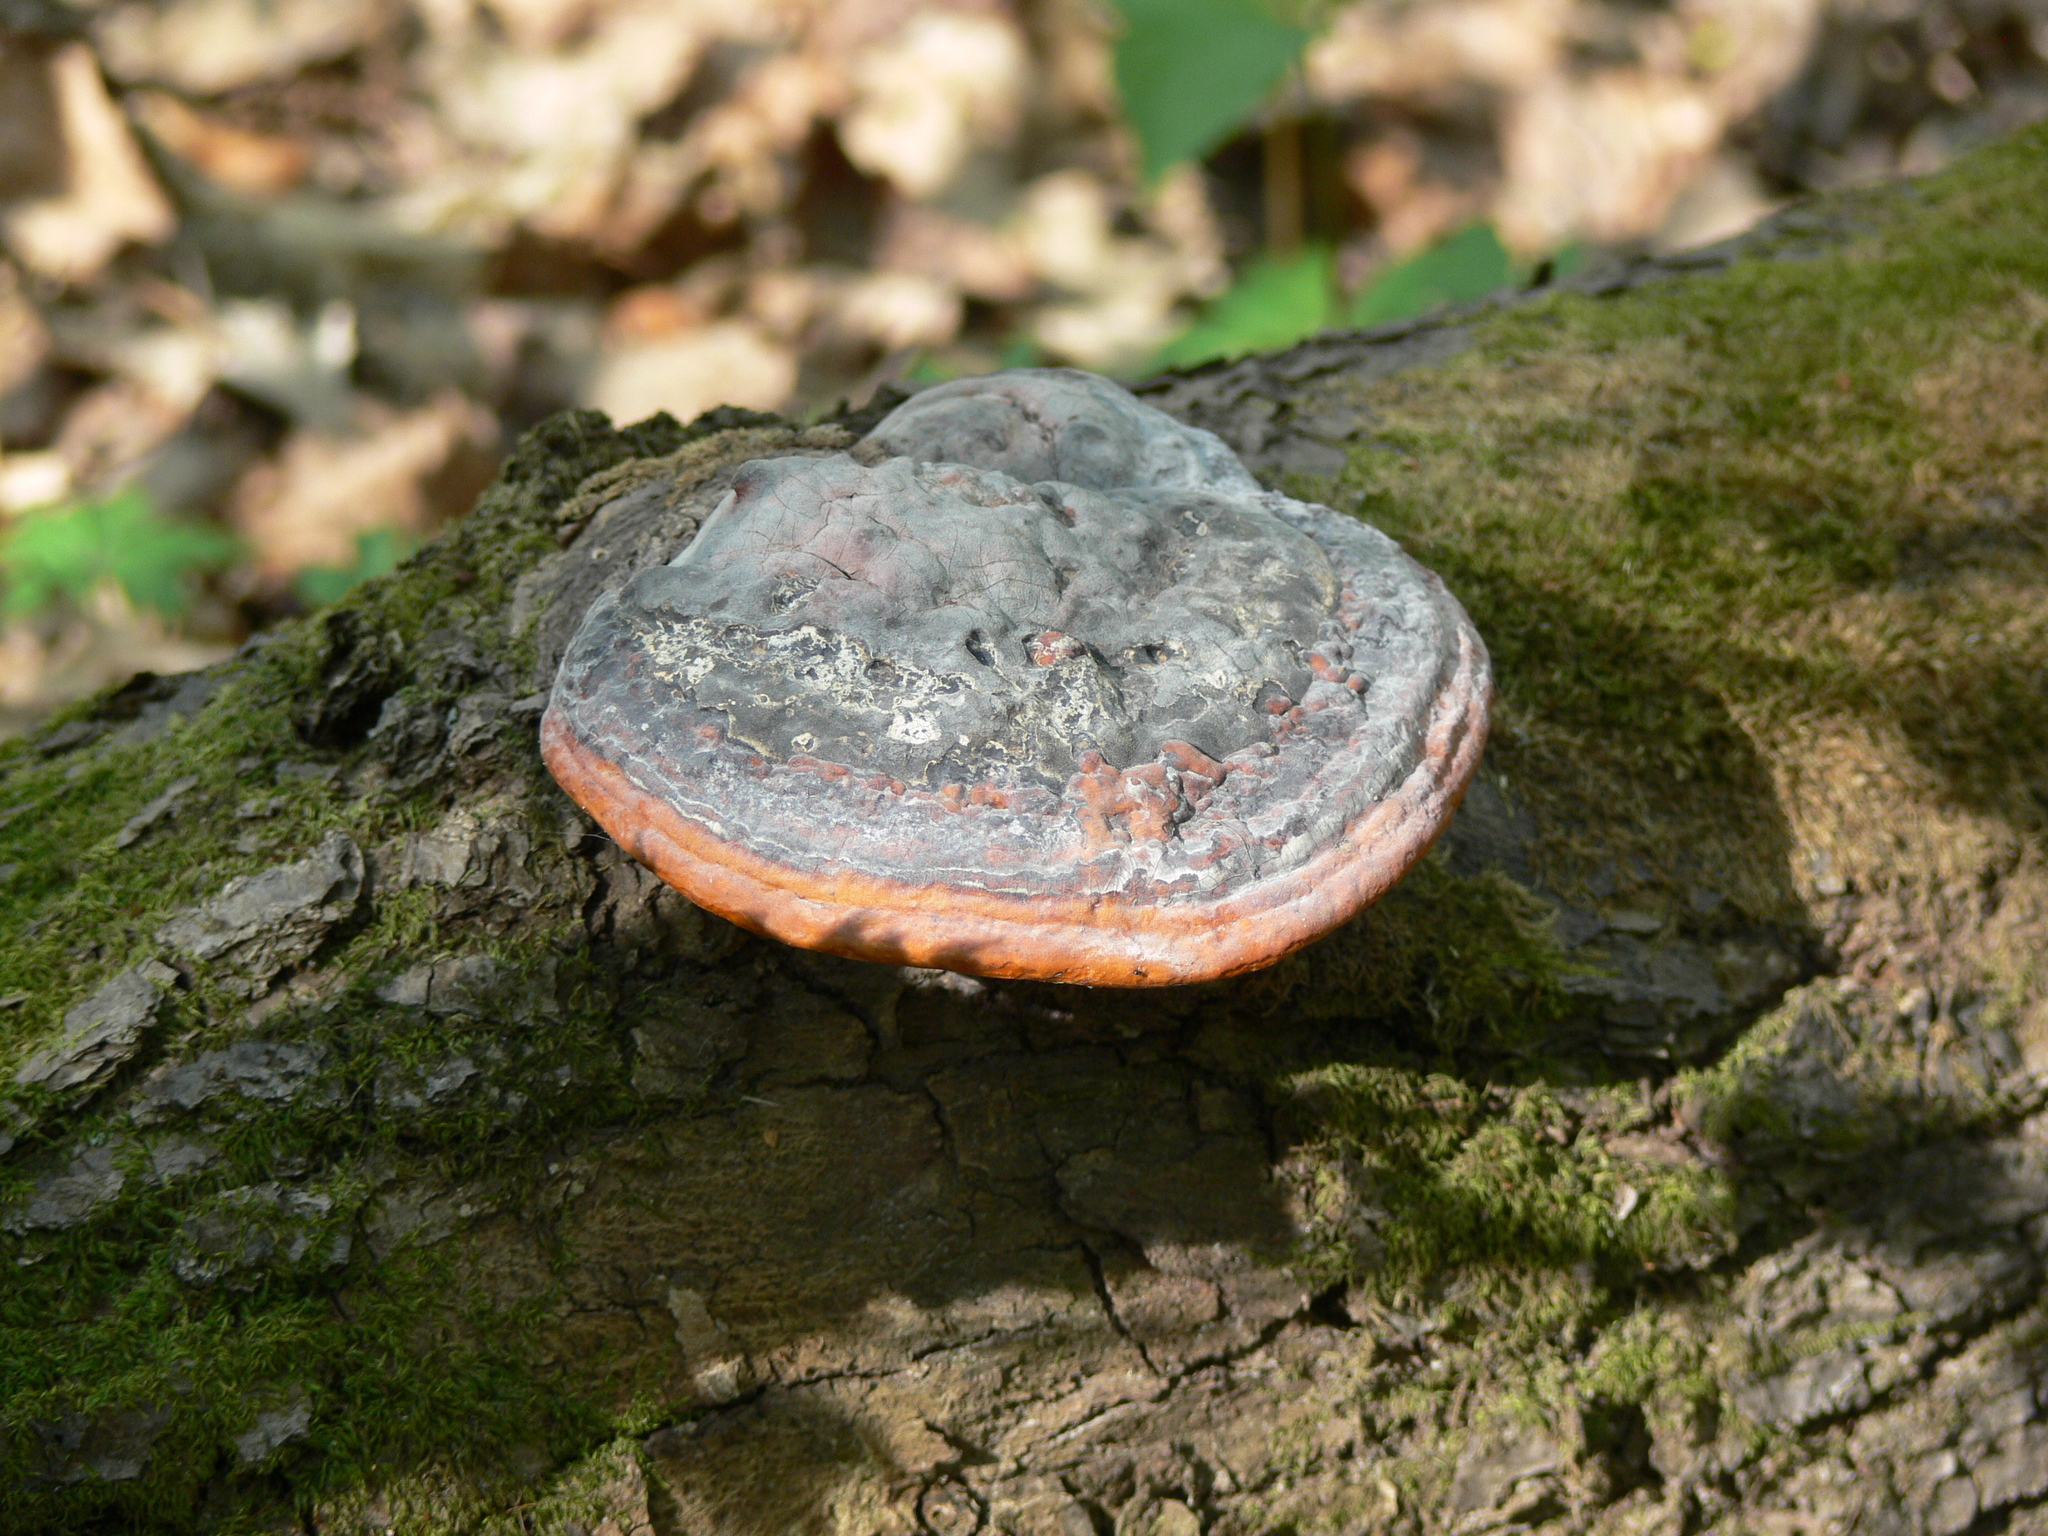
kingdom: Fungi
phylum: Basidiomycota
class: Agaricomycetes
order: Polyporales
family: Fomitopsidaceae
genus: Fomitopsis
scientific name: Fomitopsis pinicola
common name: Red-belted bracket
